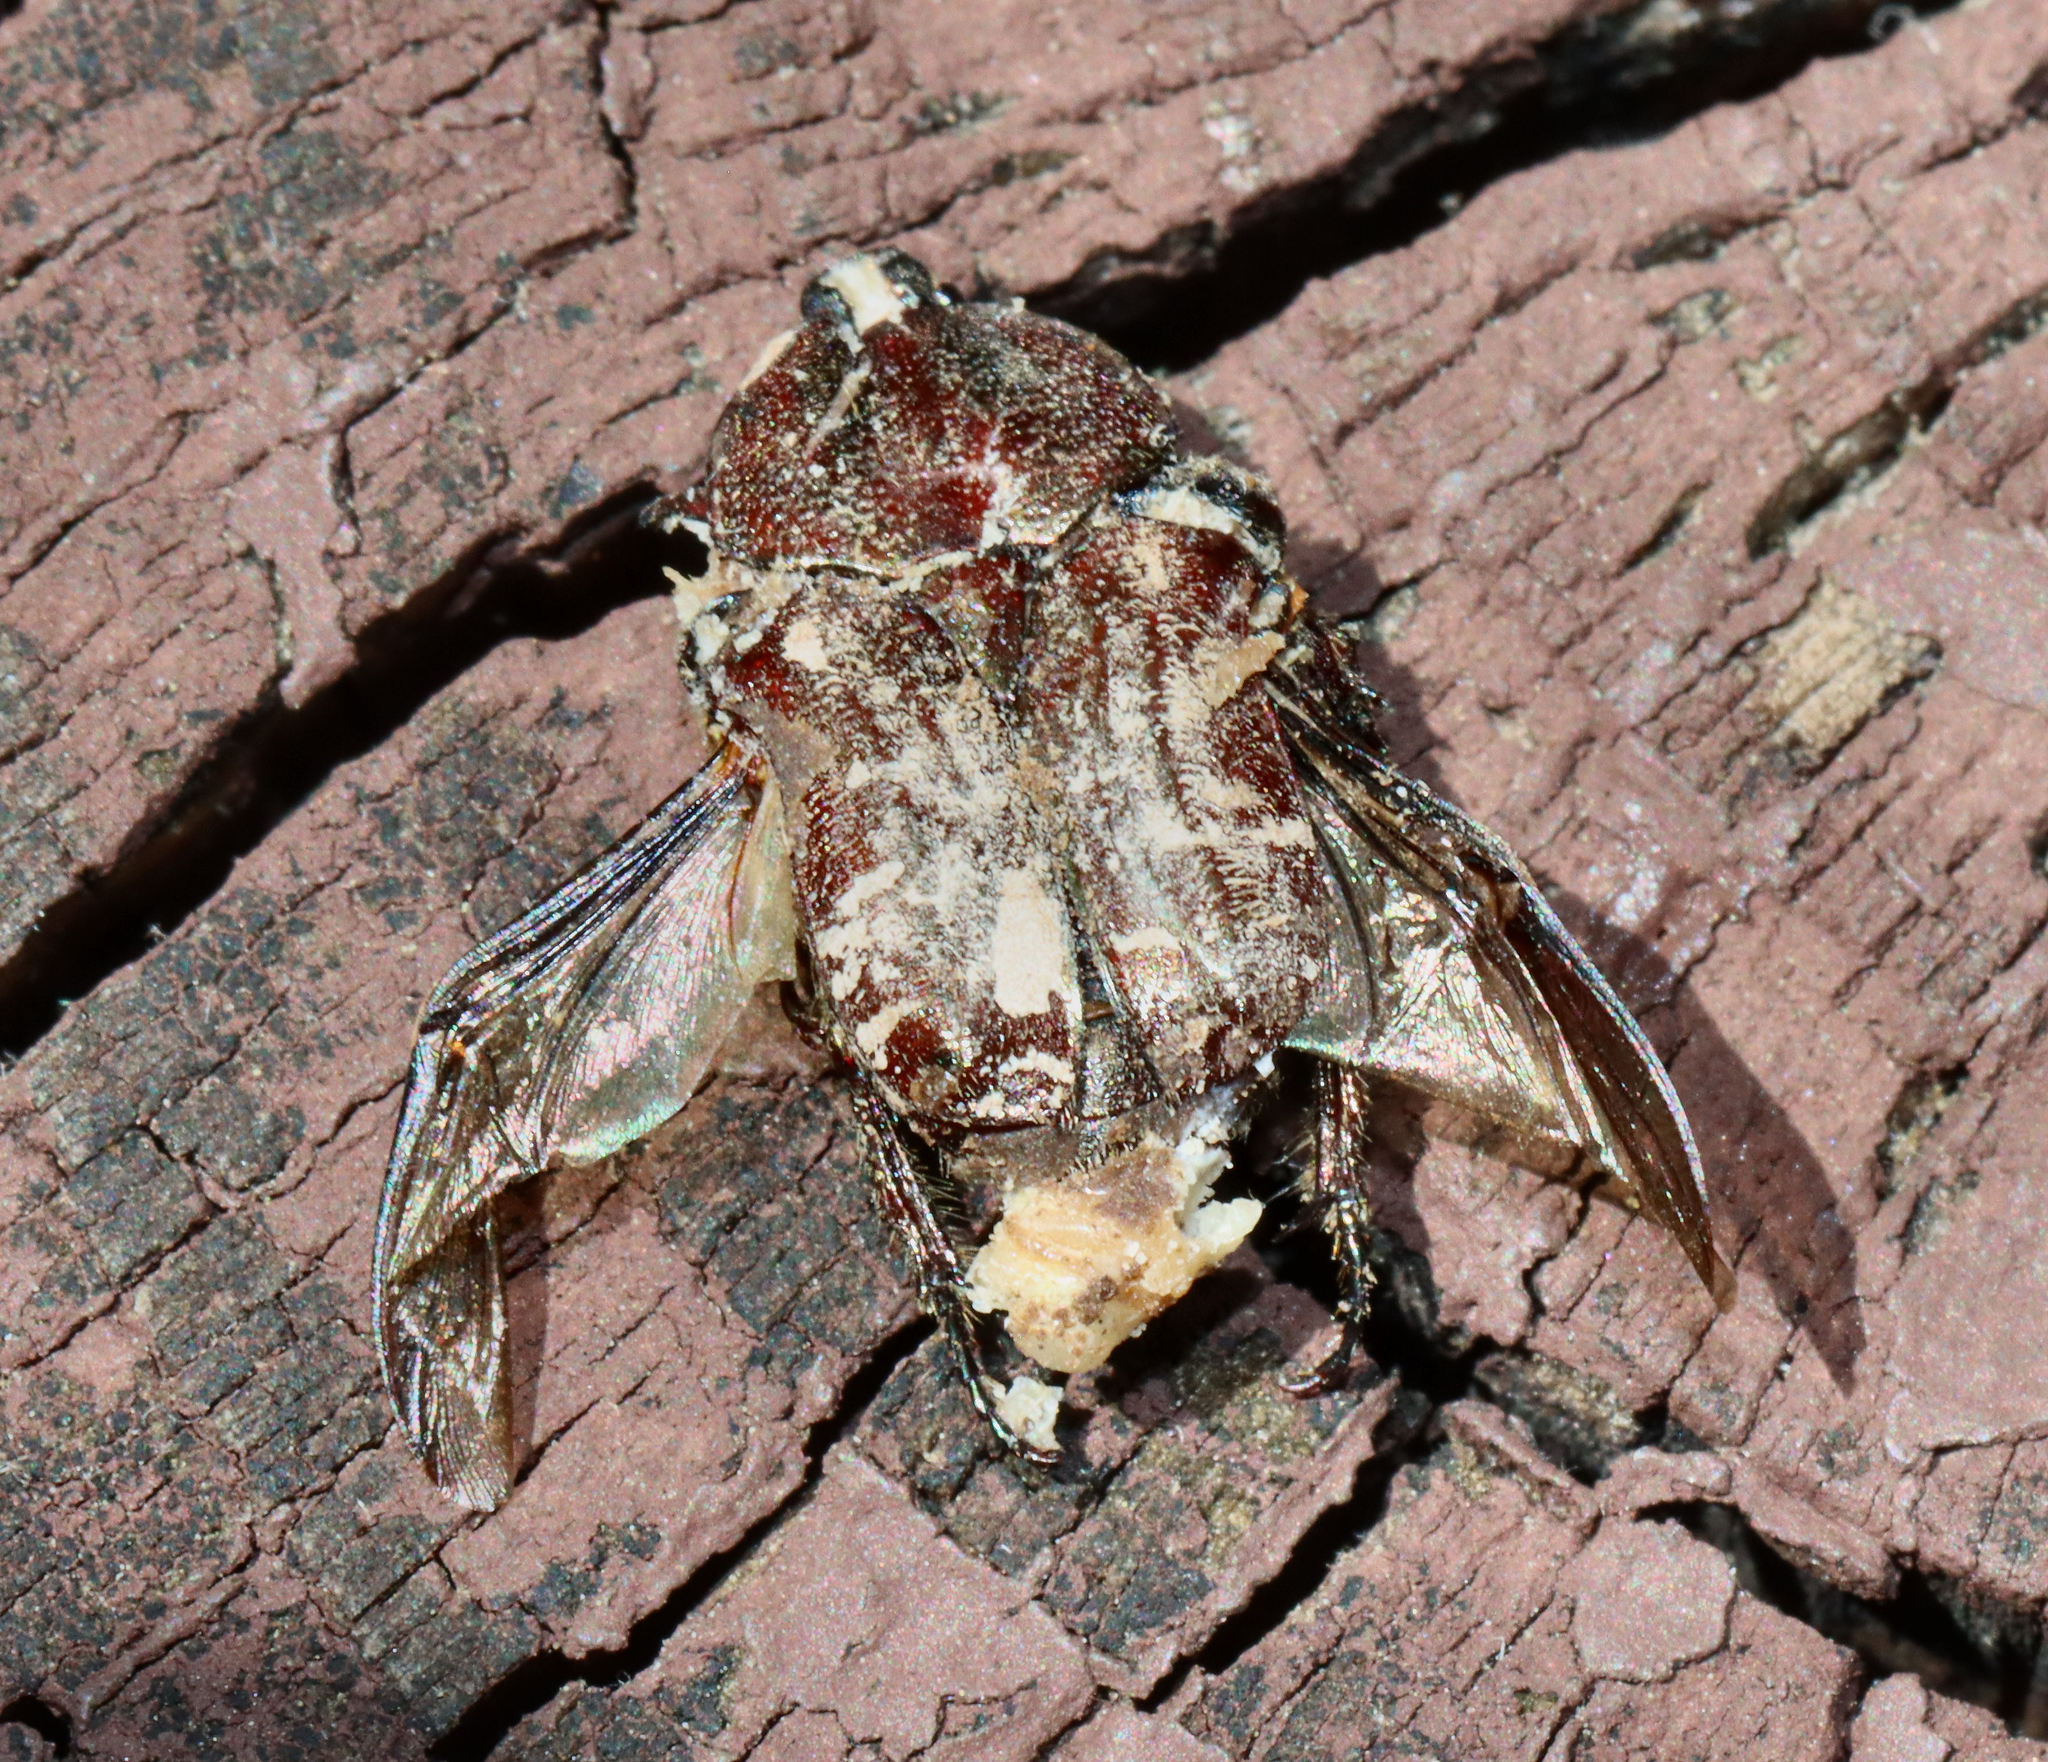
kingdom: Animalia
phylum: Arthropoda
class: Insecta
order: Coleoptera
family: Scarabaeidae
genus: Euphoria
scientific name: Euphoria sepulcralis
